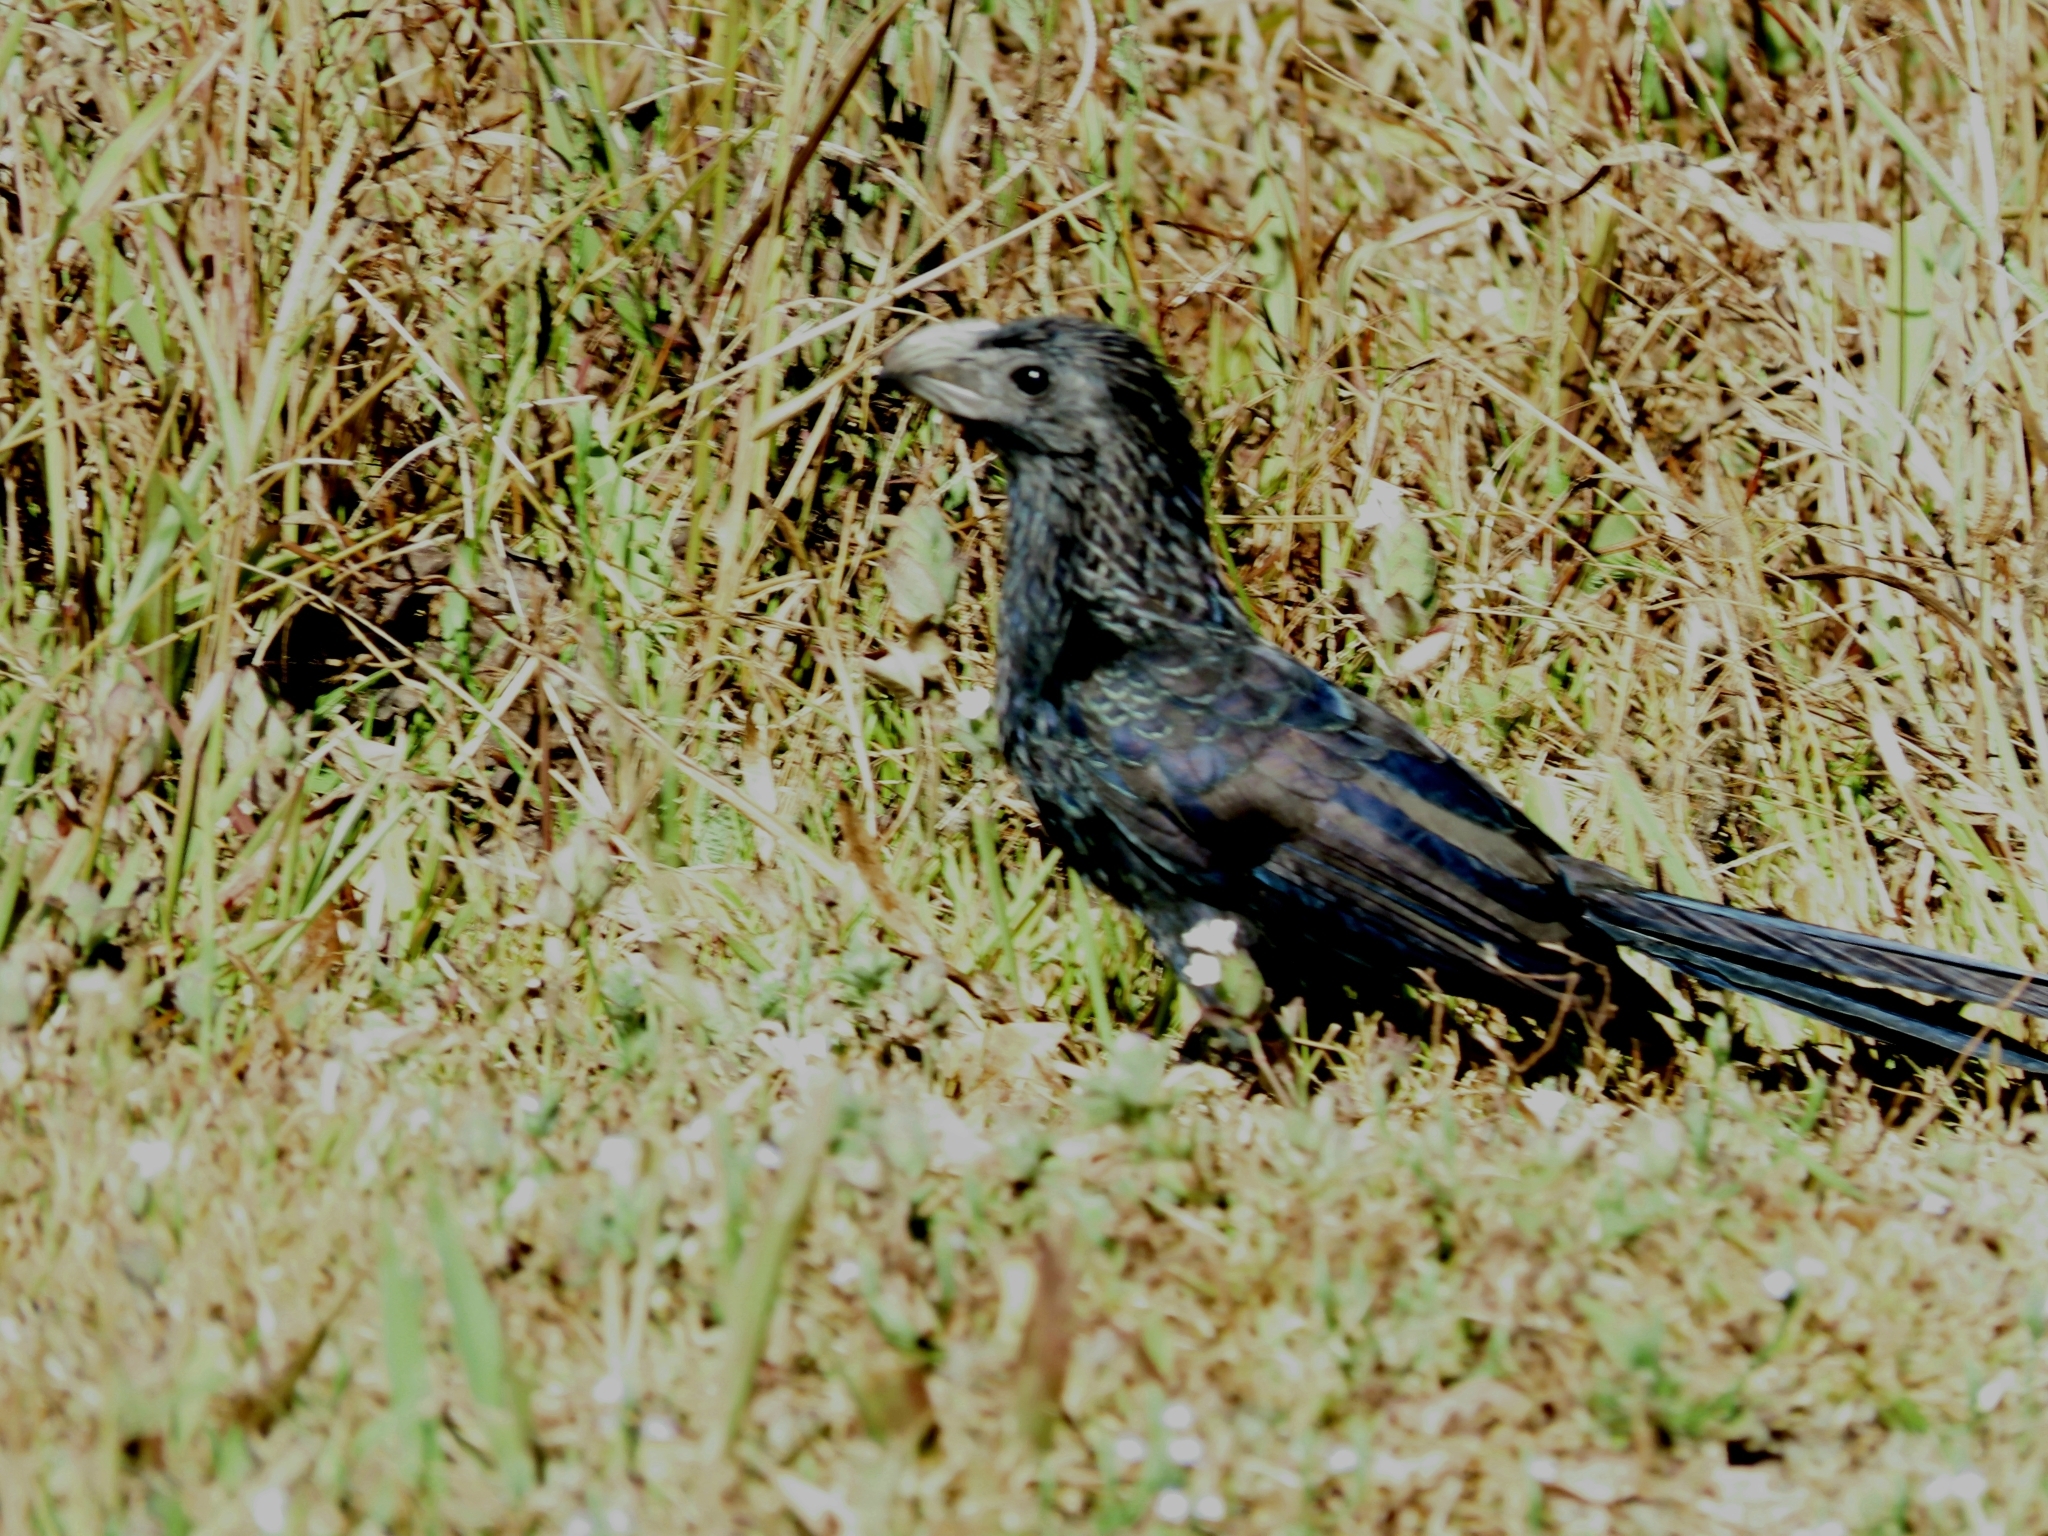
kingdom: Animalia
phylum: Chordata
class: Aves
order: Cuculiformes
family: Cuculidae
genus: Crotophaga
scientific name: Crotophaga sulcirostris
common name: Groove-billed ani
